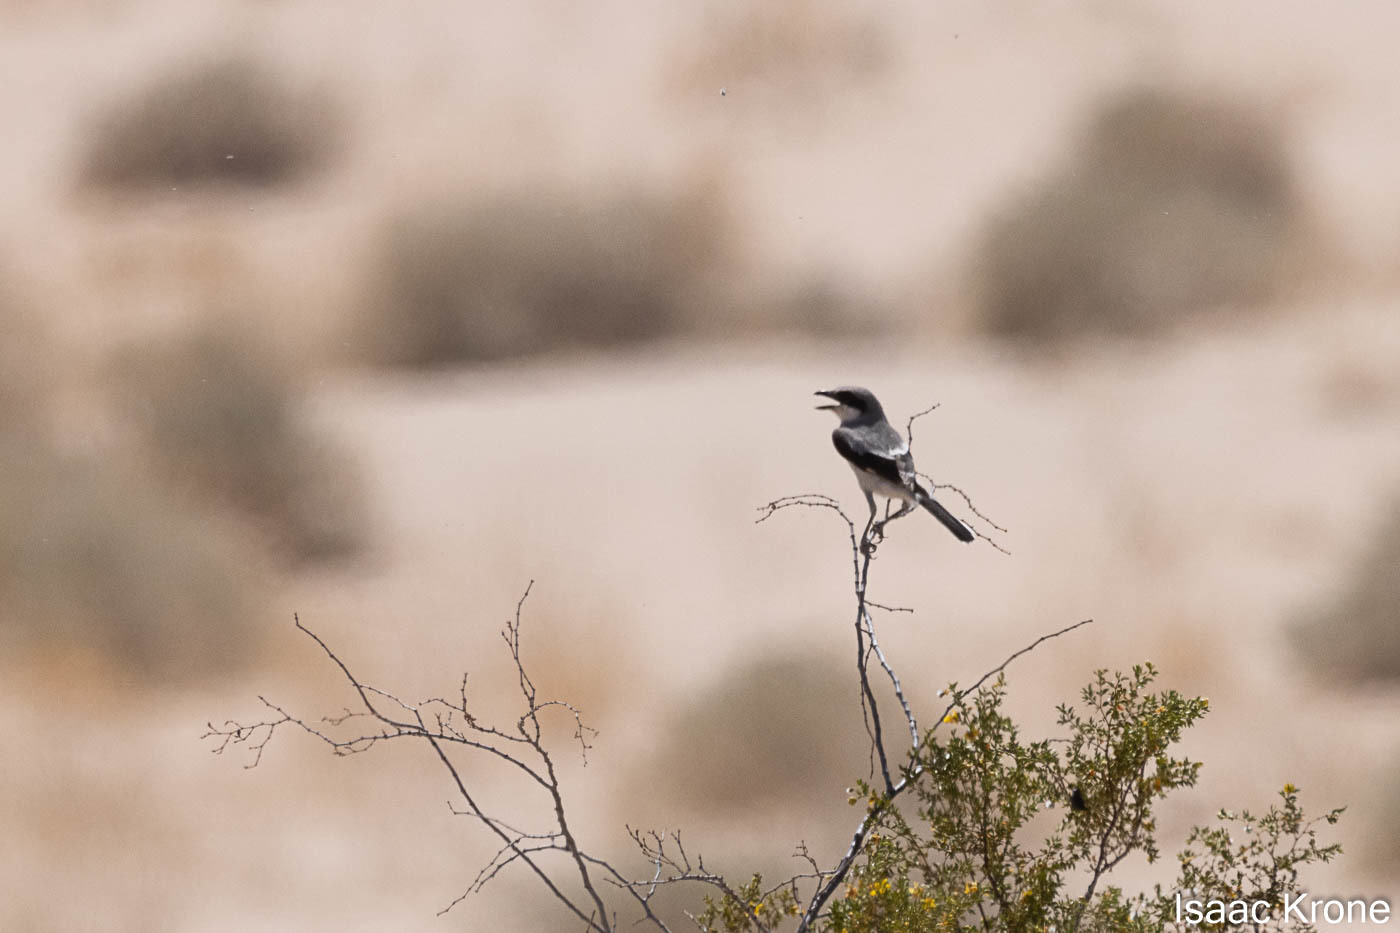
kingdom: Animalia
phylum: Chordata
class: Aves
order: Passeriformes
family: Laniidae
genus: Lanius
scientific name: Lanius ludovicianus
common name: Loggerhead shrike
